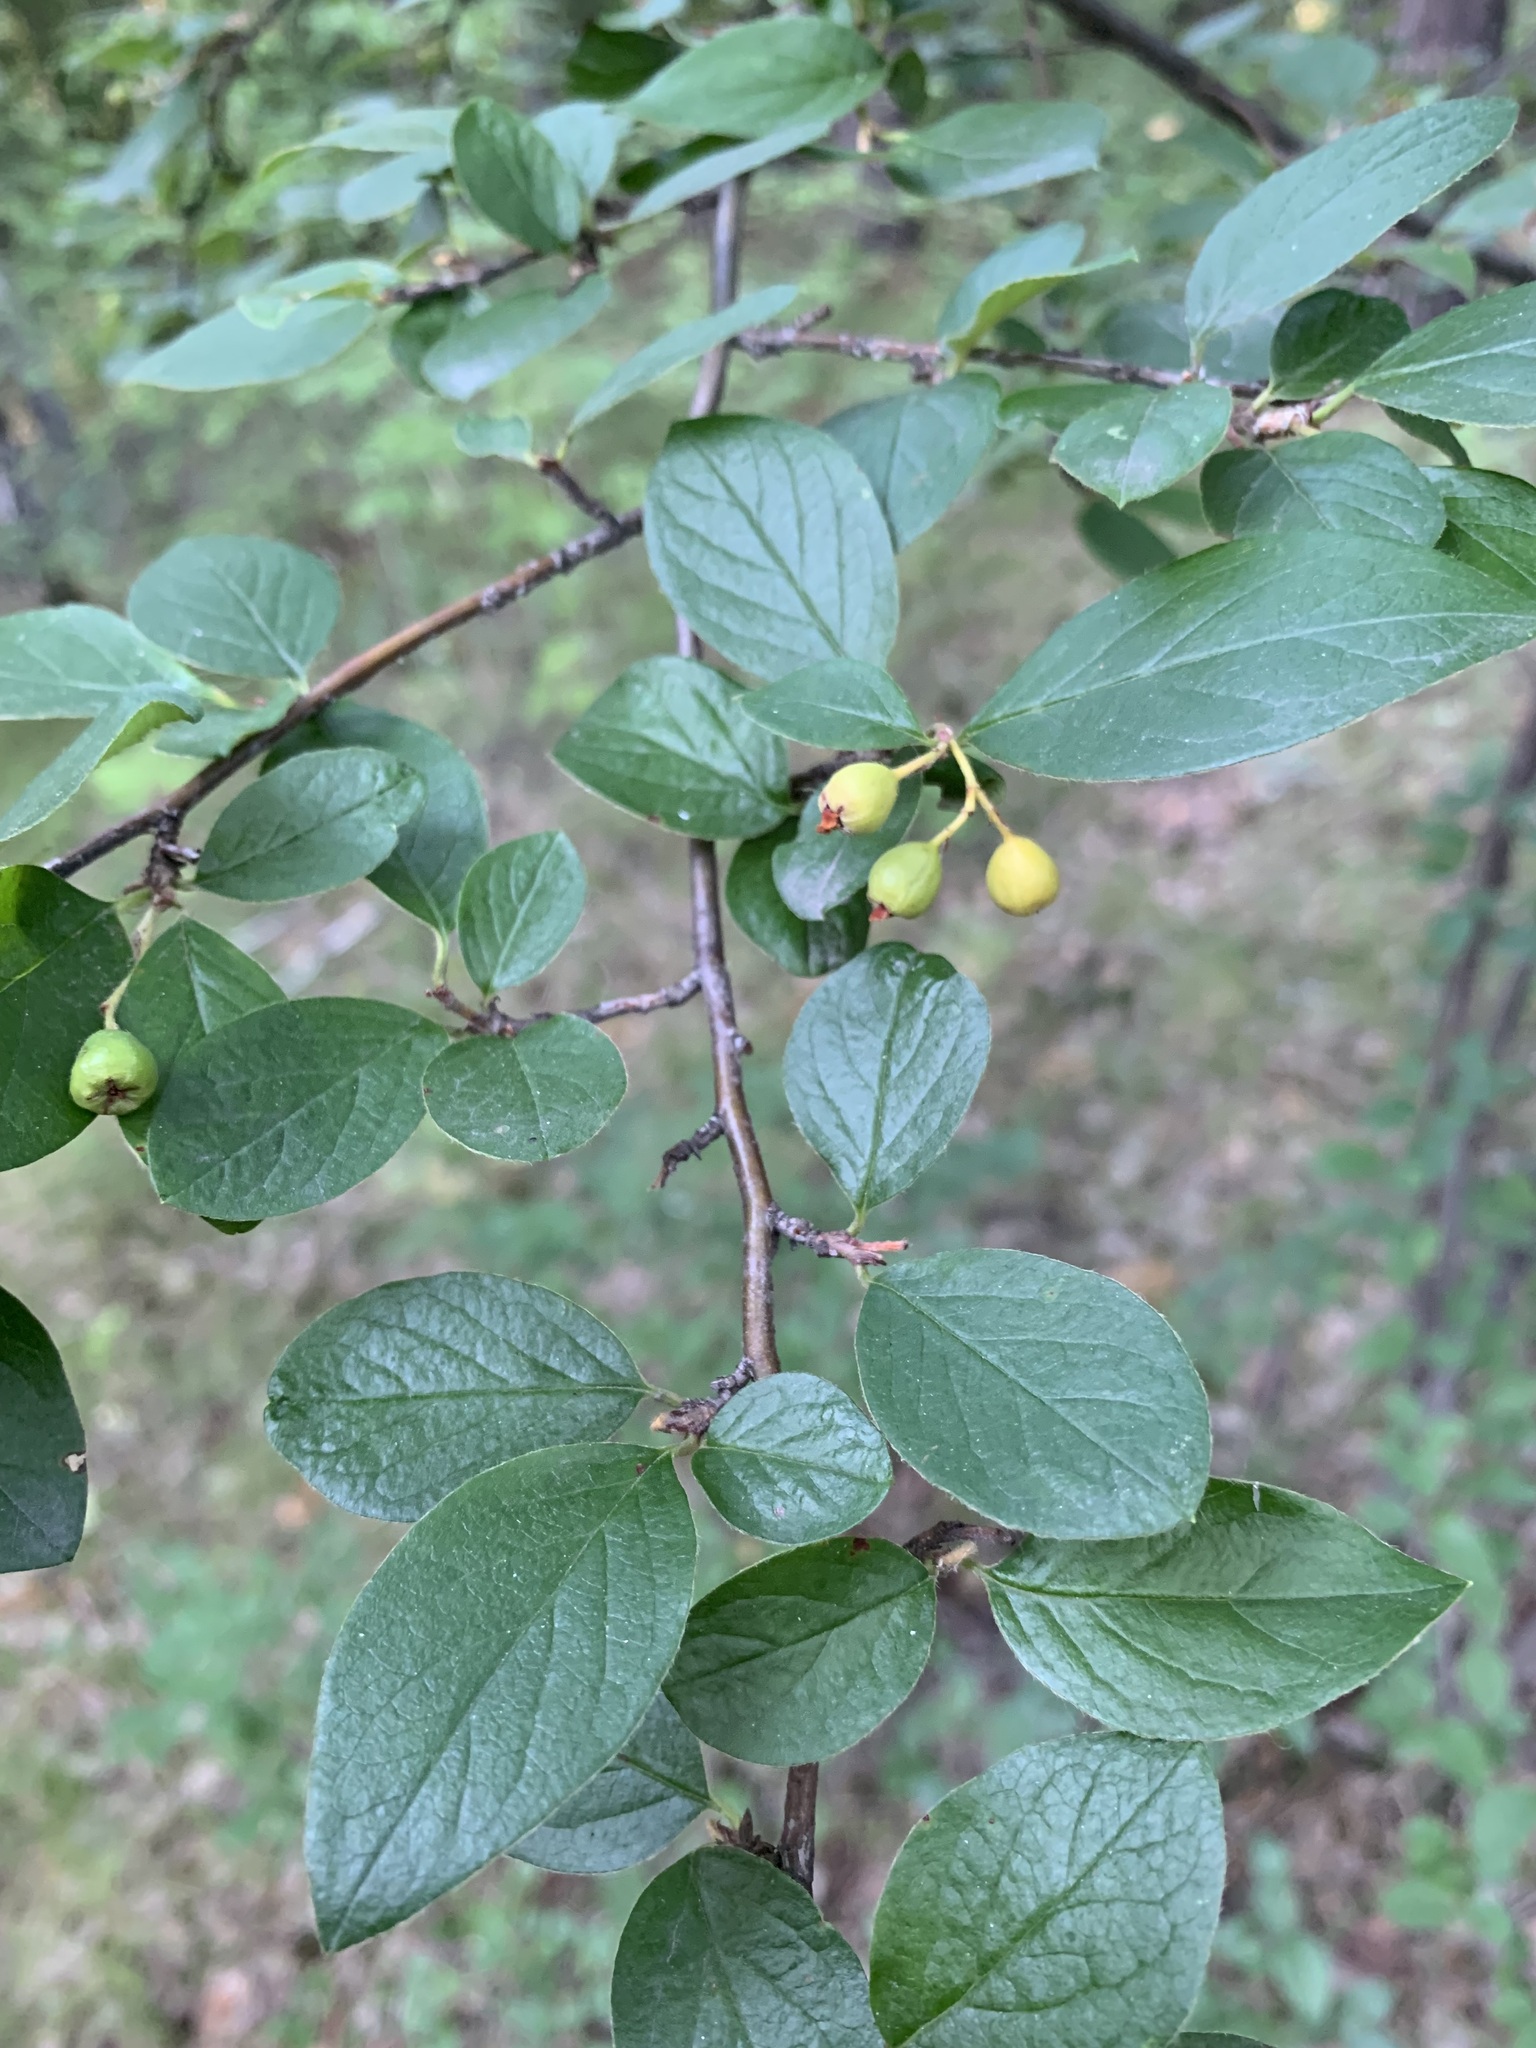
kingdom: Plantae
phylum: Tracheophyta
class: Magnoliopsida
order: Rosales
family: Rosaceae
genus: Cotoneaster
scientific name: Cotoneaster acutifolius
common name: Peking cotoneaster
